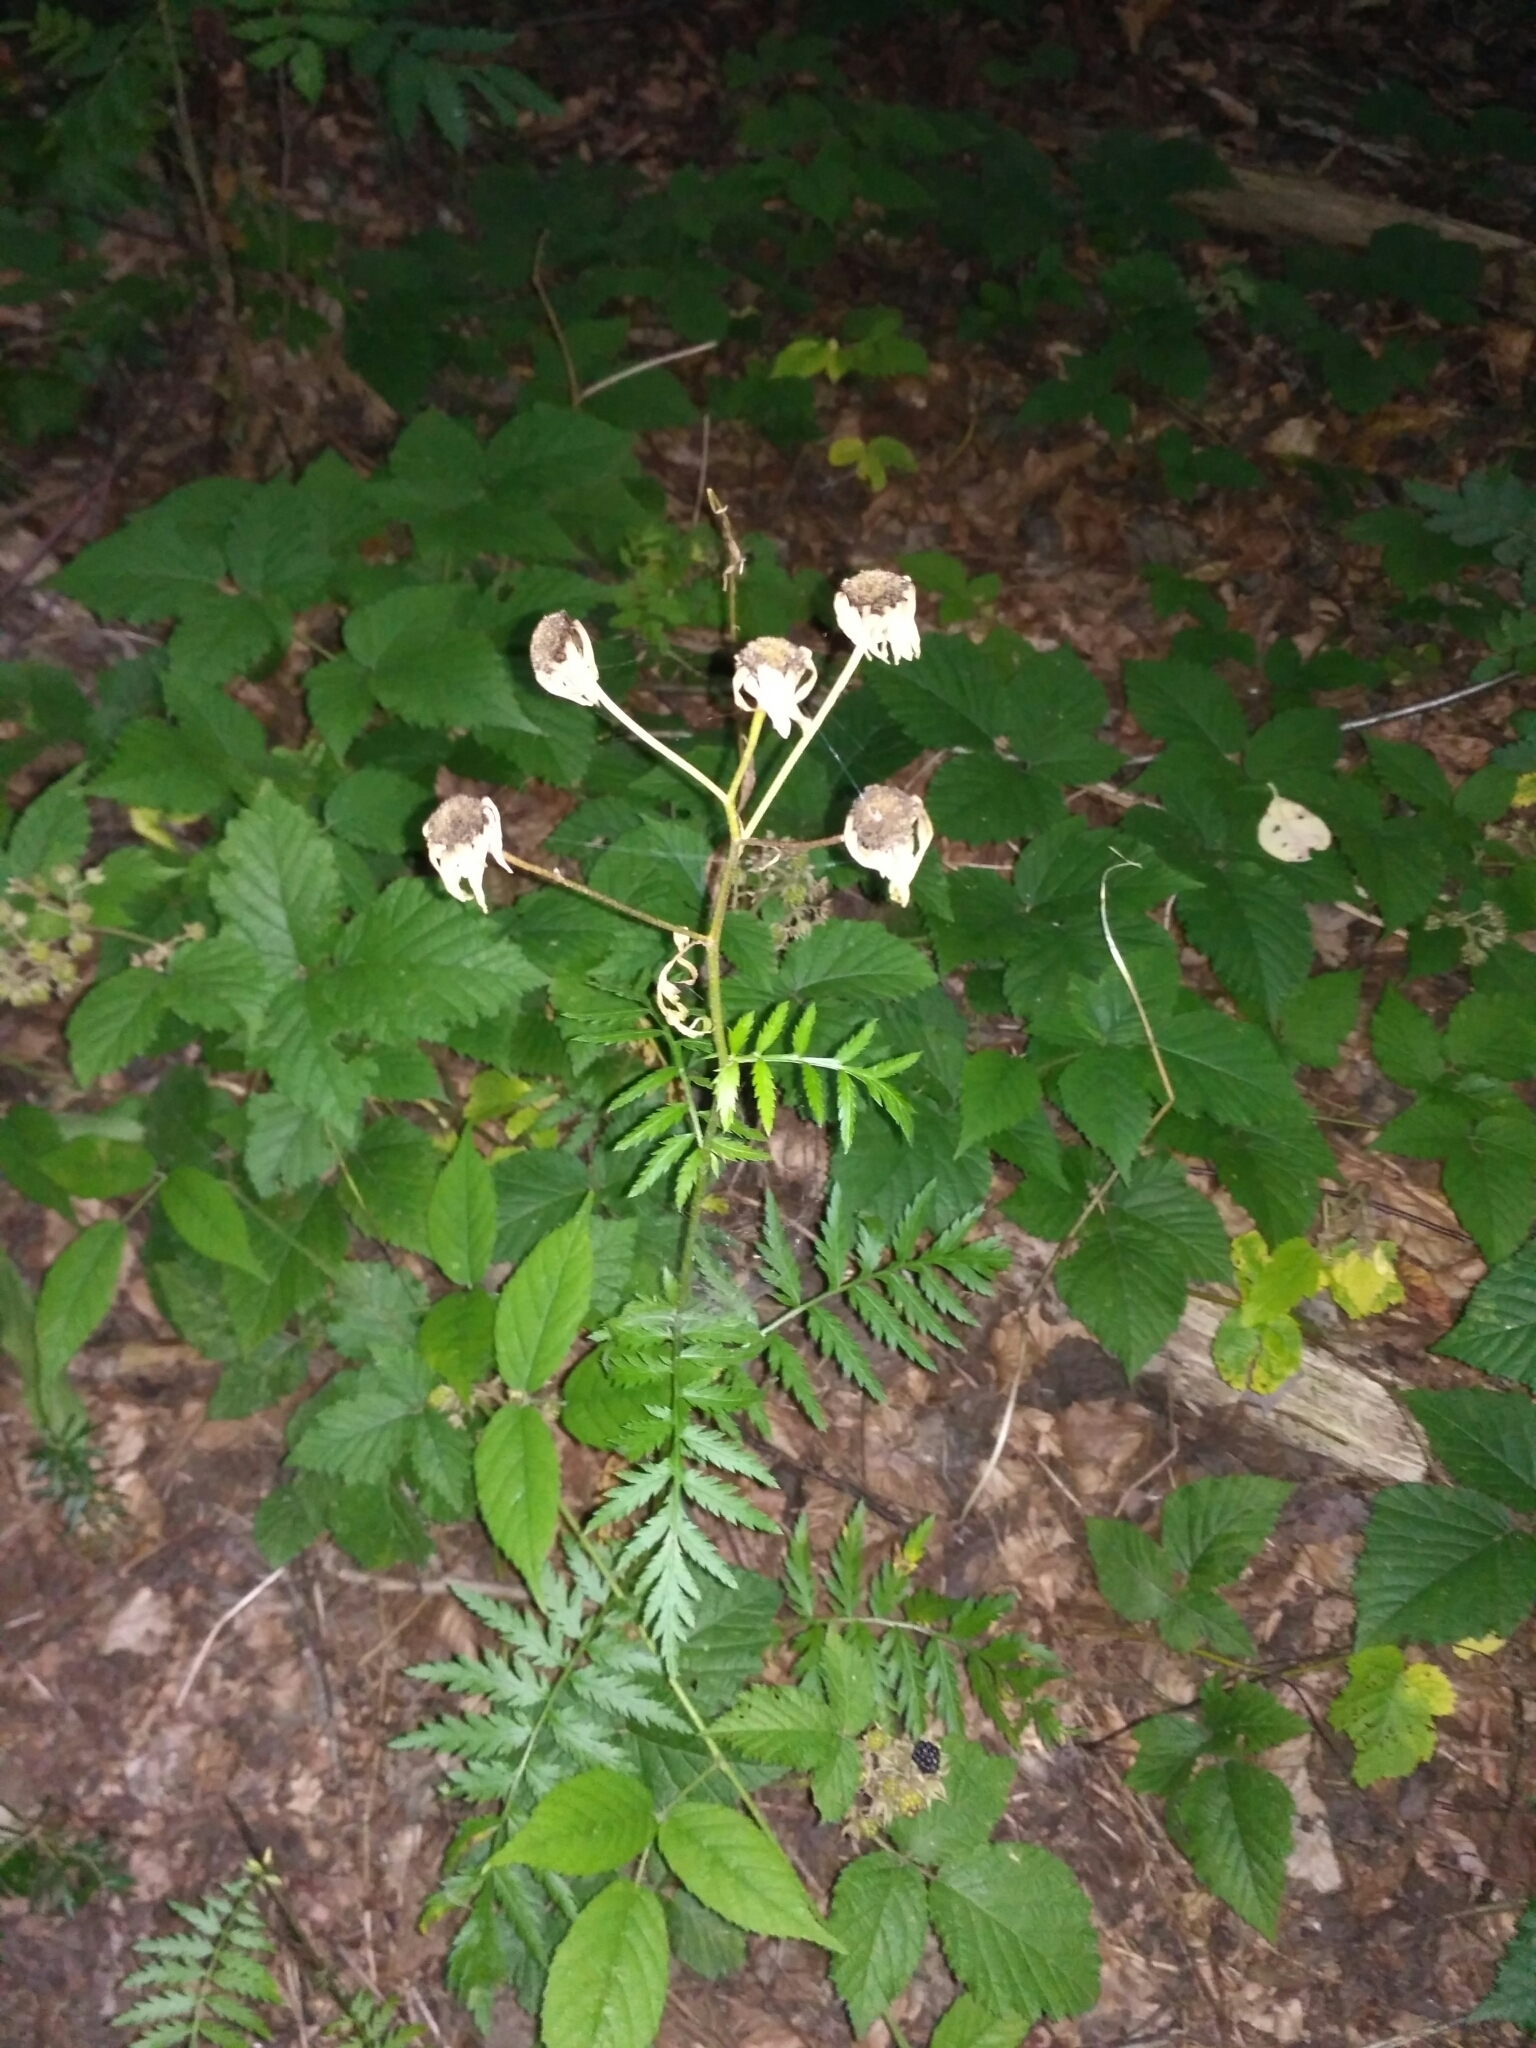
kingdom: Plantae
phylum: Tracheophyta
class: Magnoliopsida
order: Asterales
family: Asteraceae
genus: Tanacetum
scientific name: Tanacetum corymbosum
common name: Scentless feverfew
